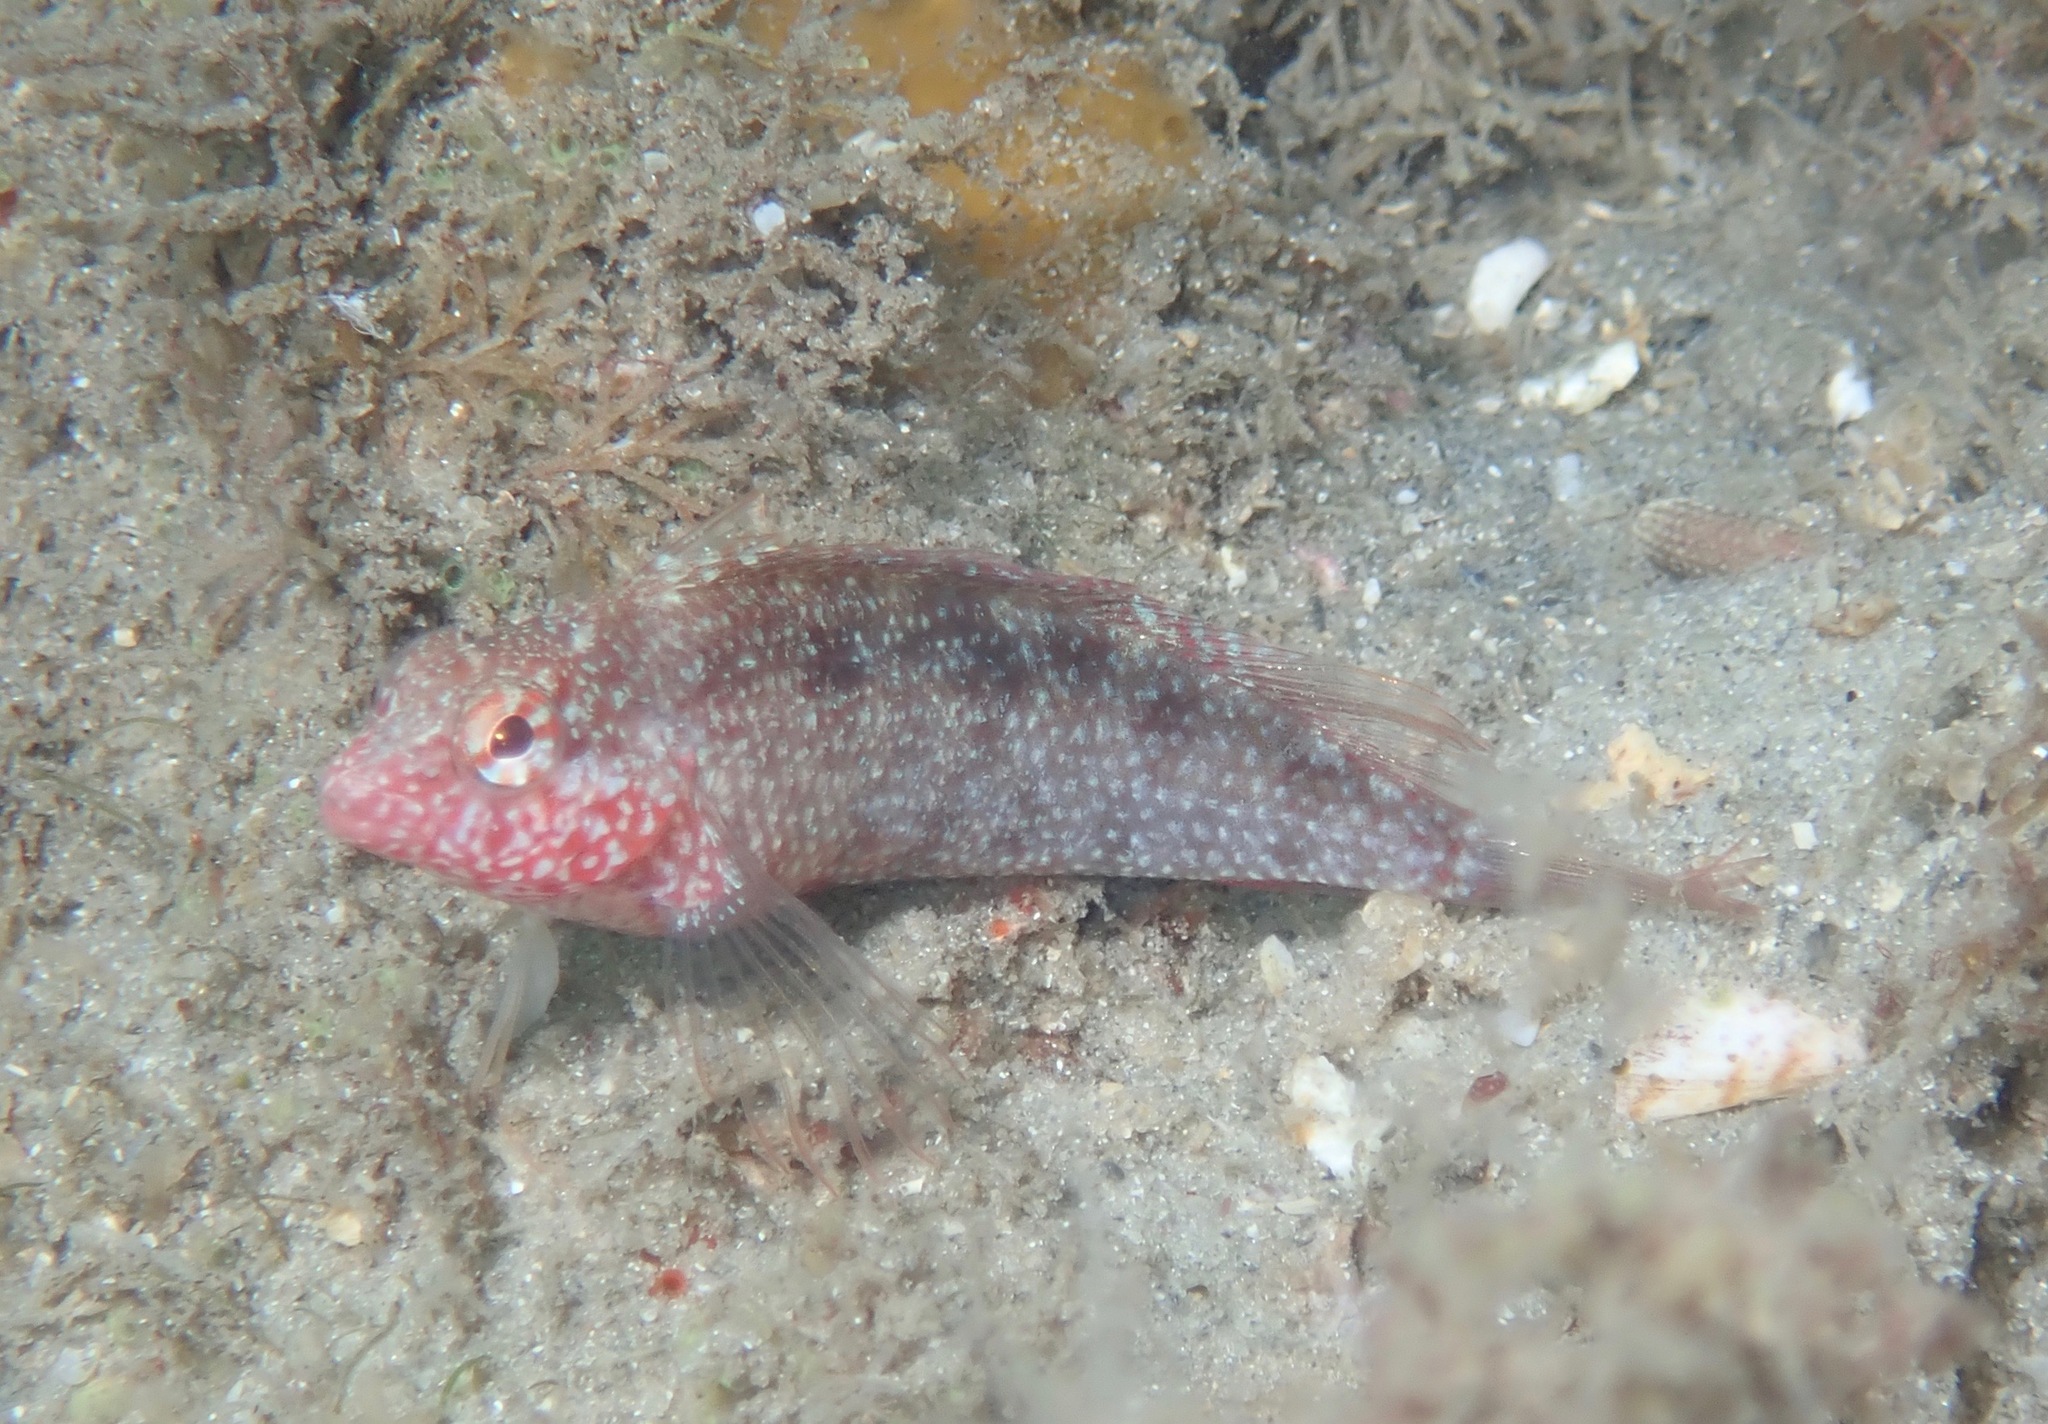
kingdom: Animalia
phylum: Chordata
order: Perciformes
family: Labrisomidae
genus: Malacoctenus
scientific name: Malacoctenus macropus
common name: Rosy blenny
